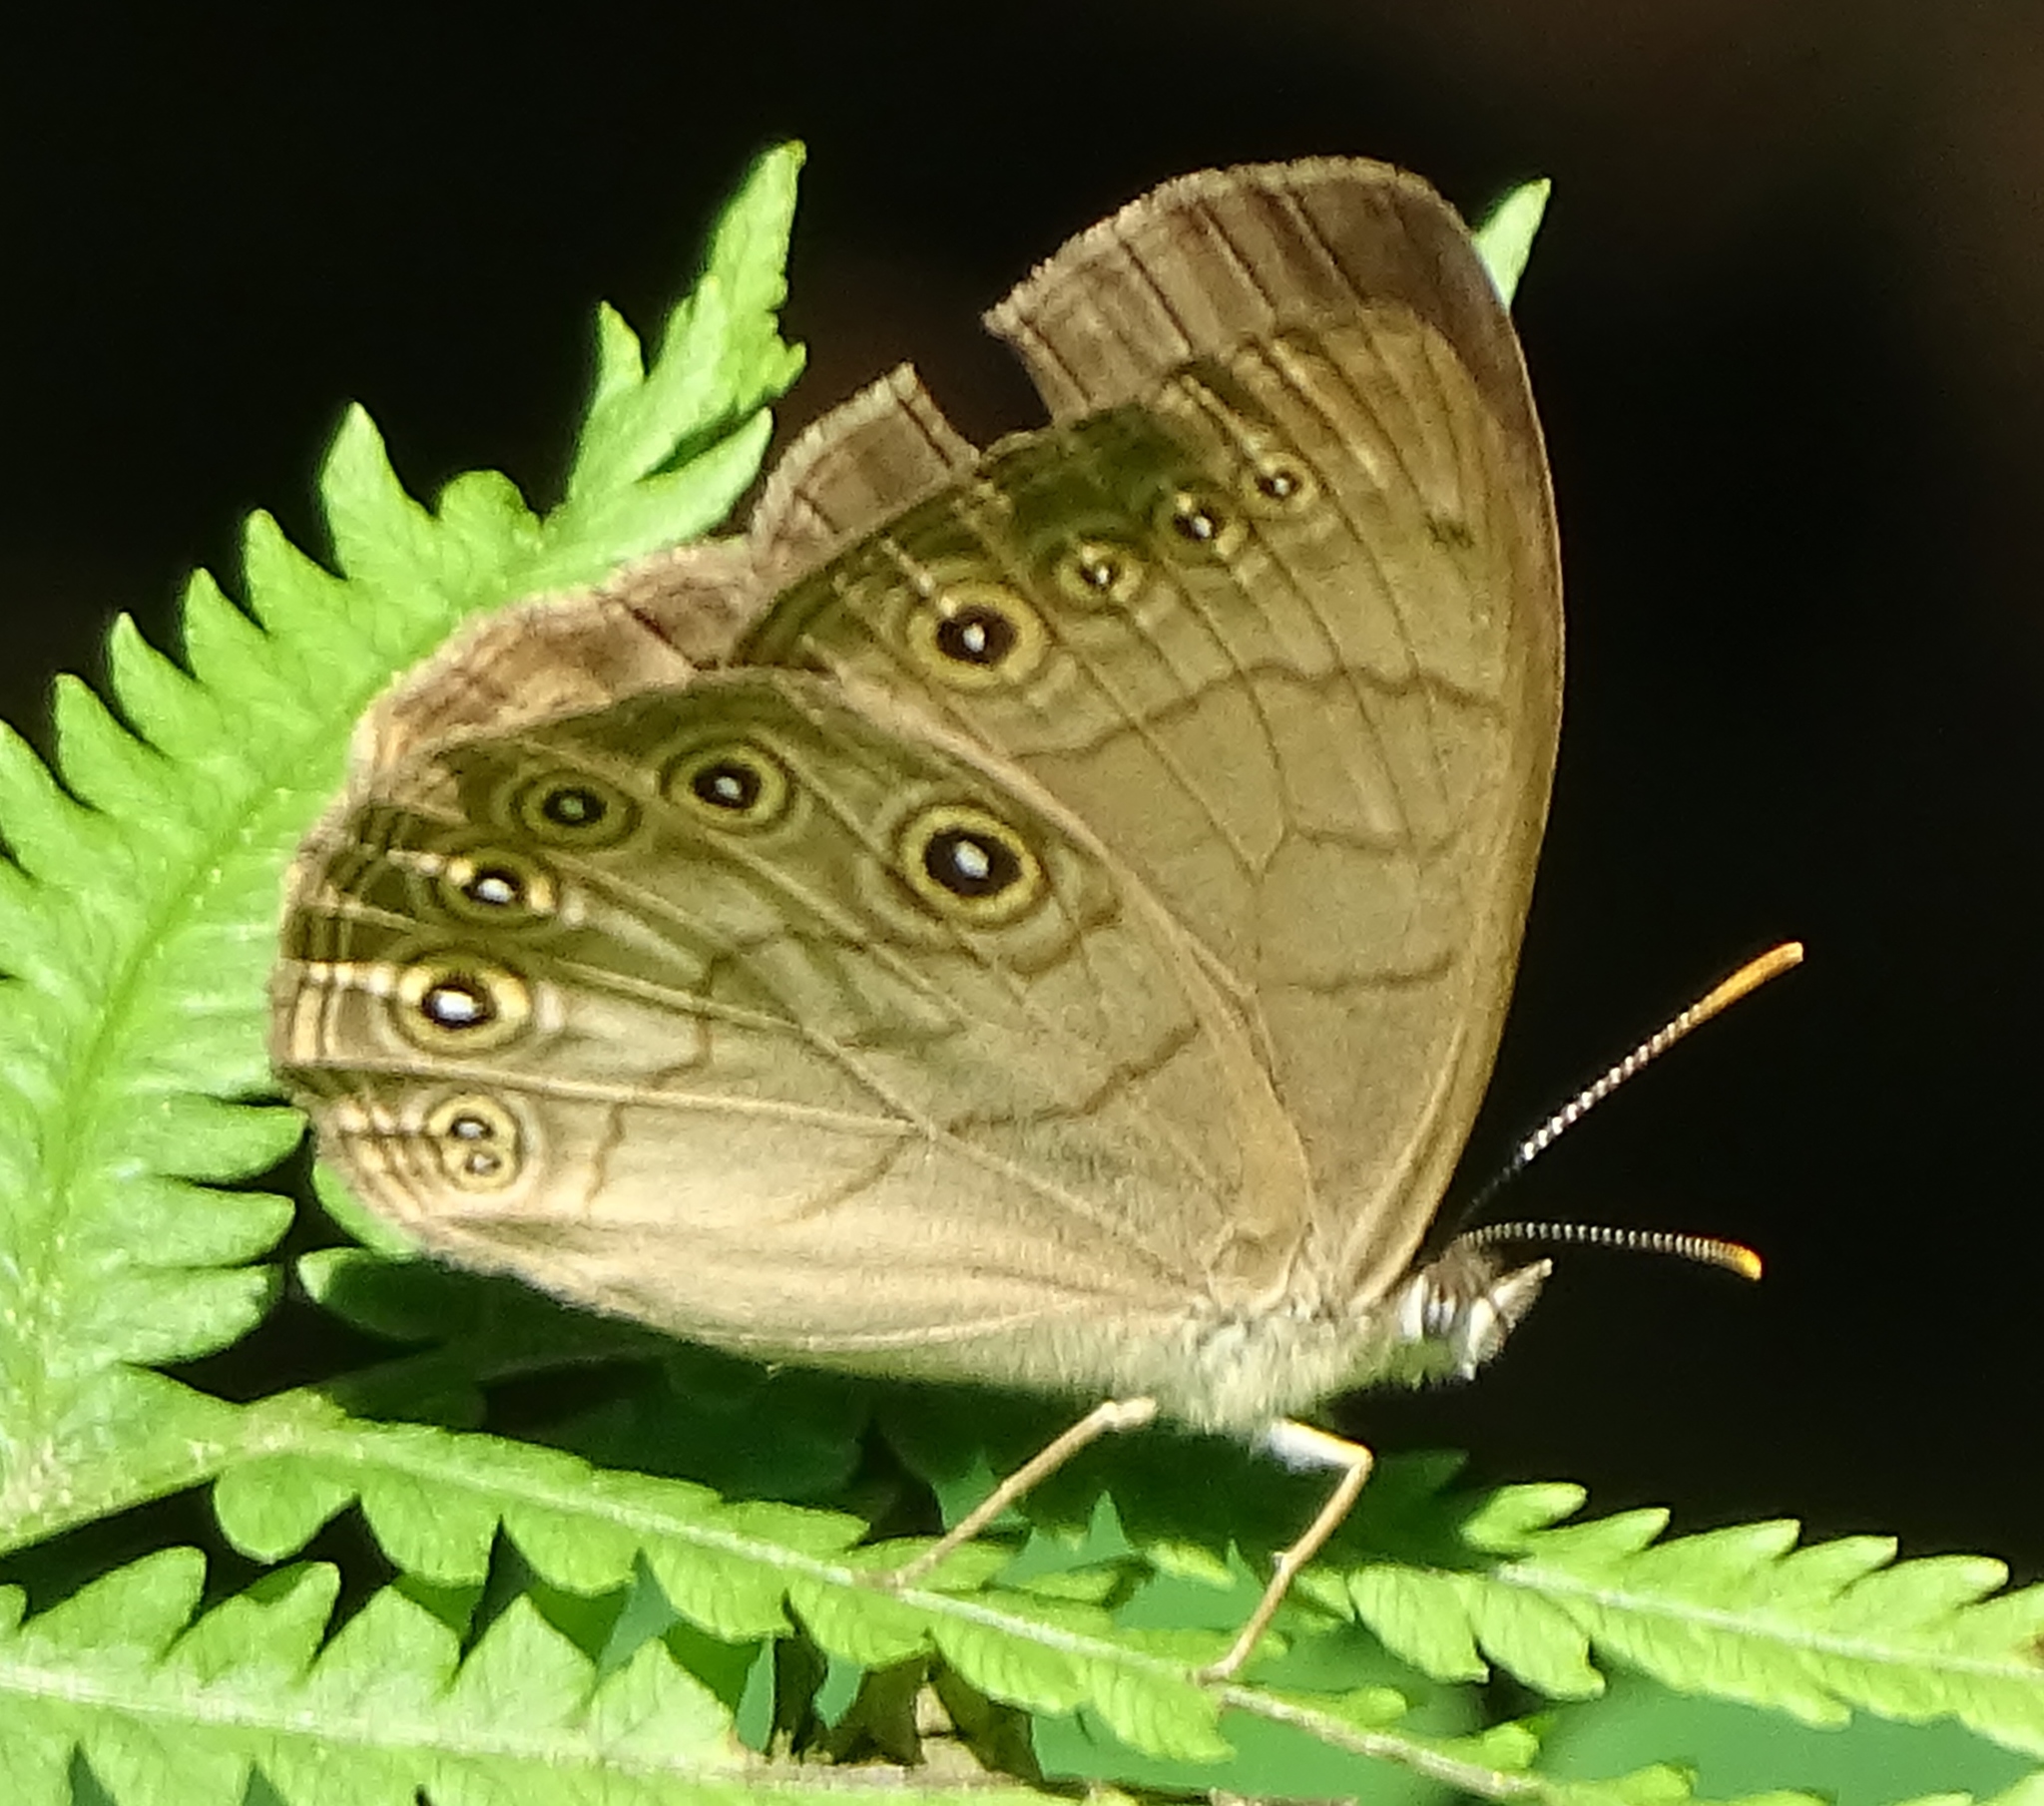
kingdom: Animalia
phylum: Arthropoda
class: Insecta
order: Lepidoptera
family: Nymphalidae
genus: Lethe
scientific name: Lethe eurydice
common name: Eyed brown
